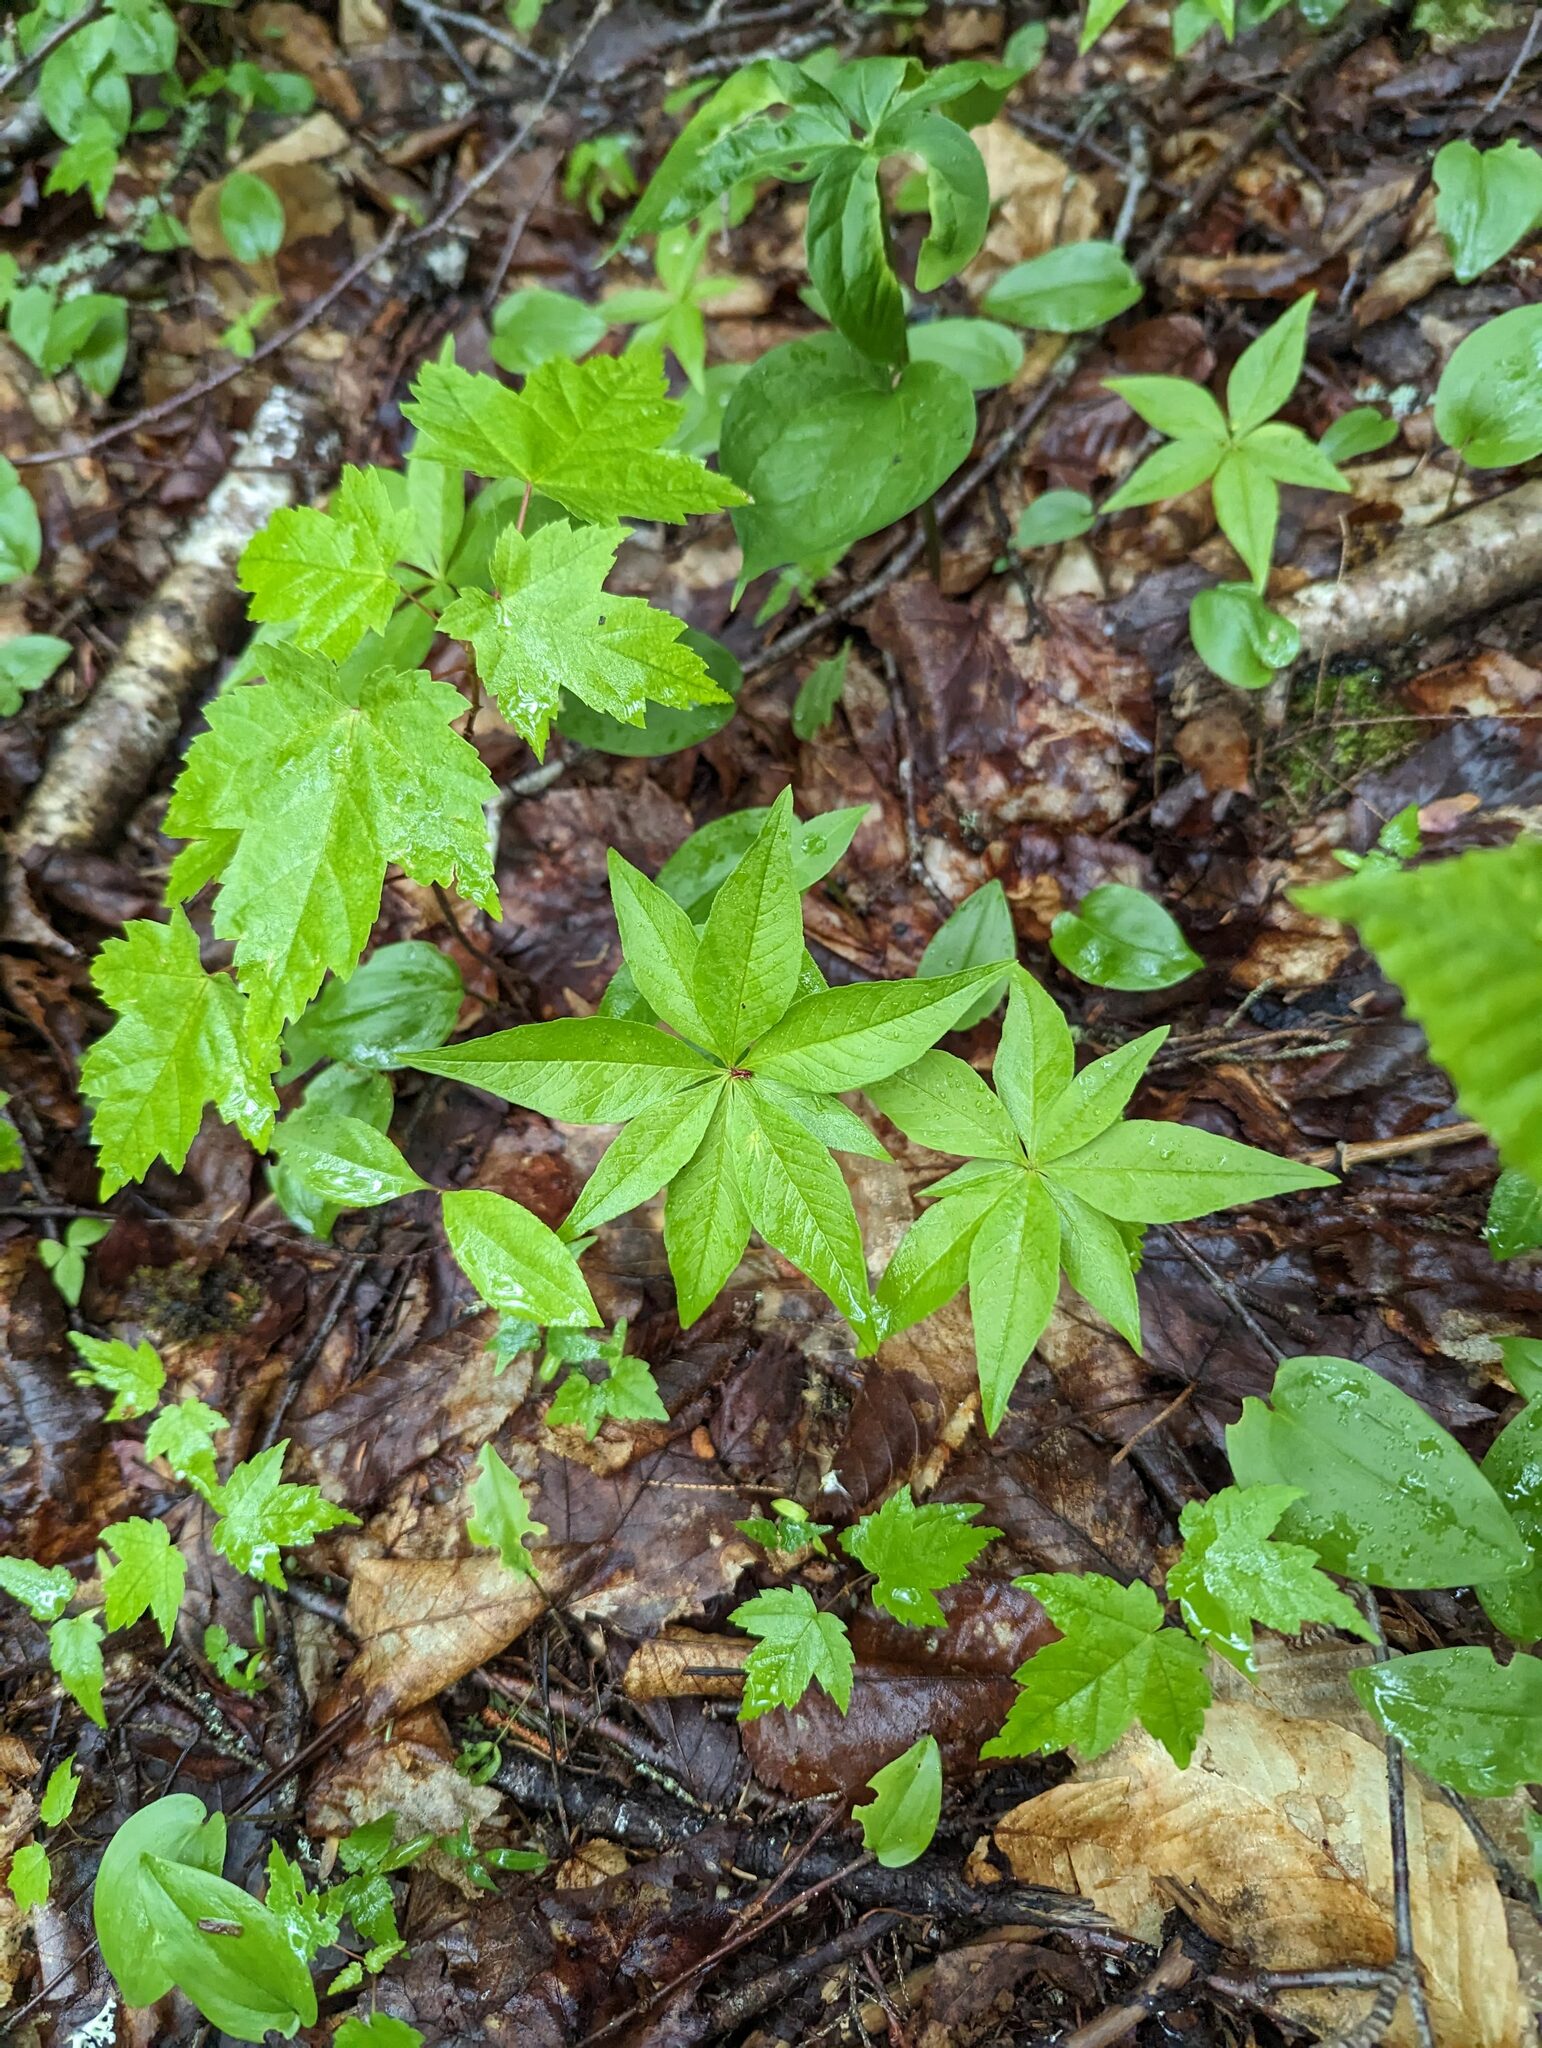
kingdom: Plantae
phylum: Tracheophyta
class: Magnoliopsida
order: Ericales
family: Primulaceae
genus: Lysimachia
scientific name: Lysimachia borealis
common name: American starflower
